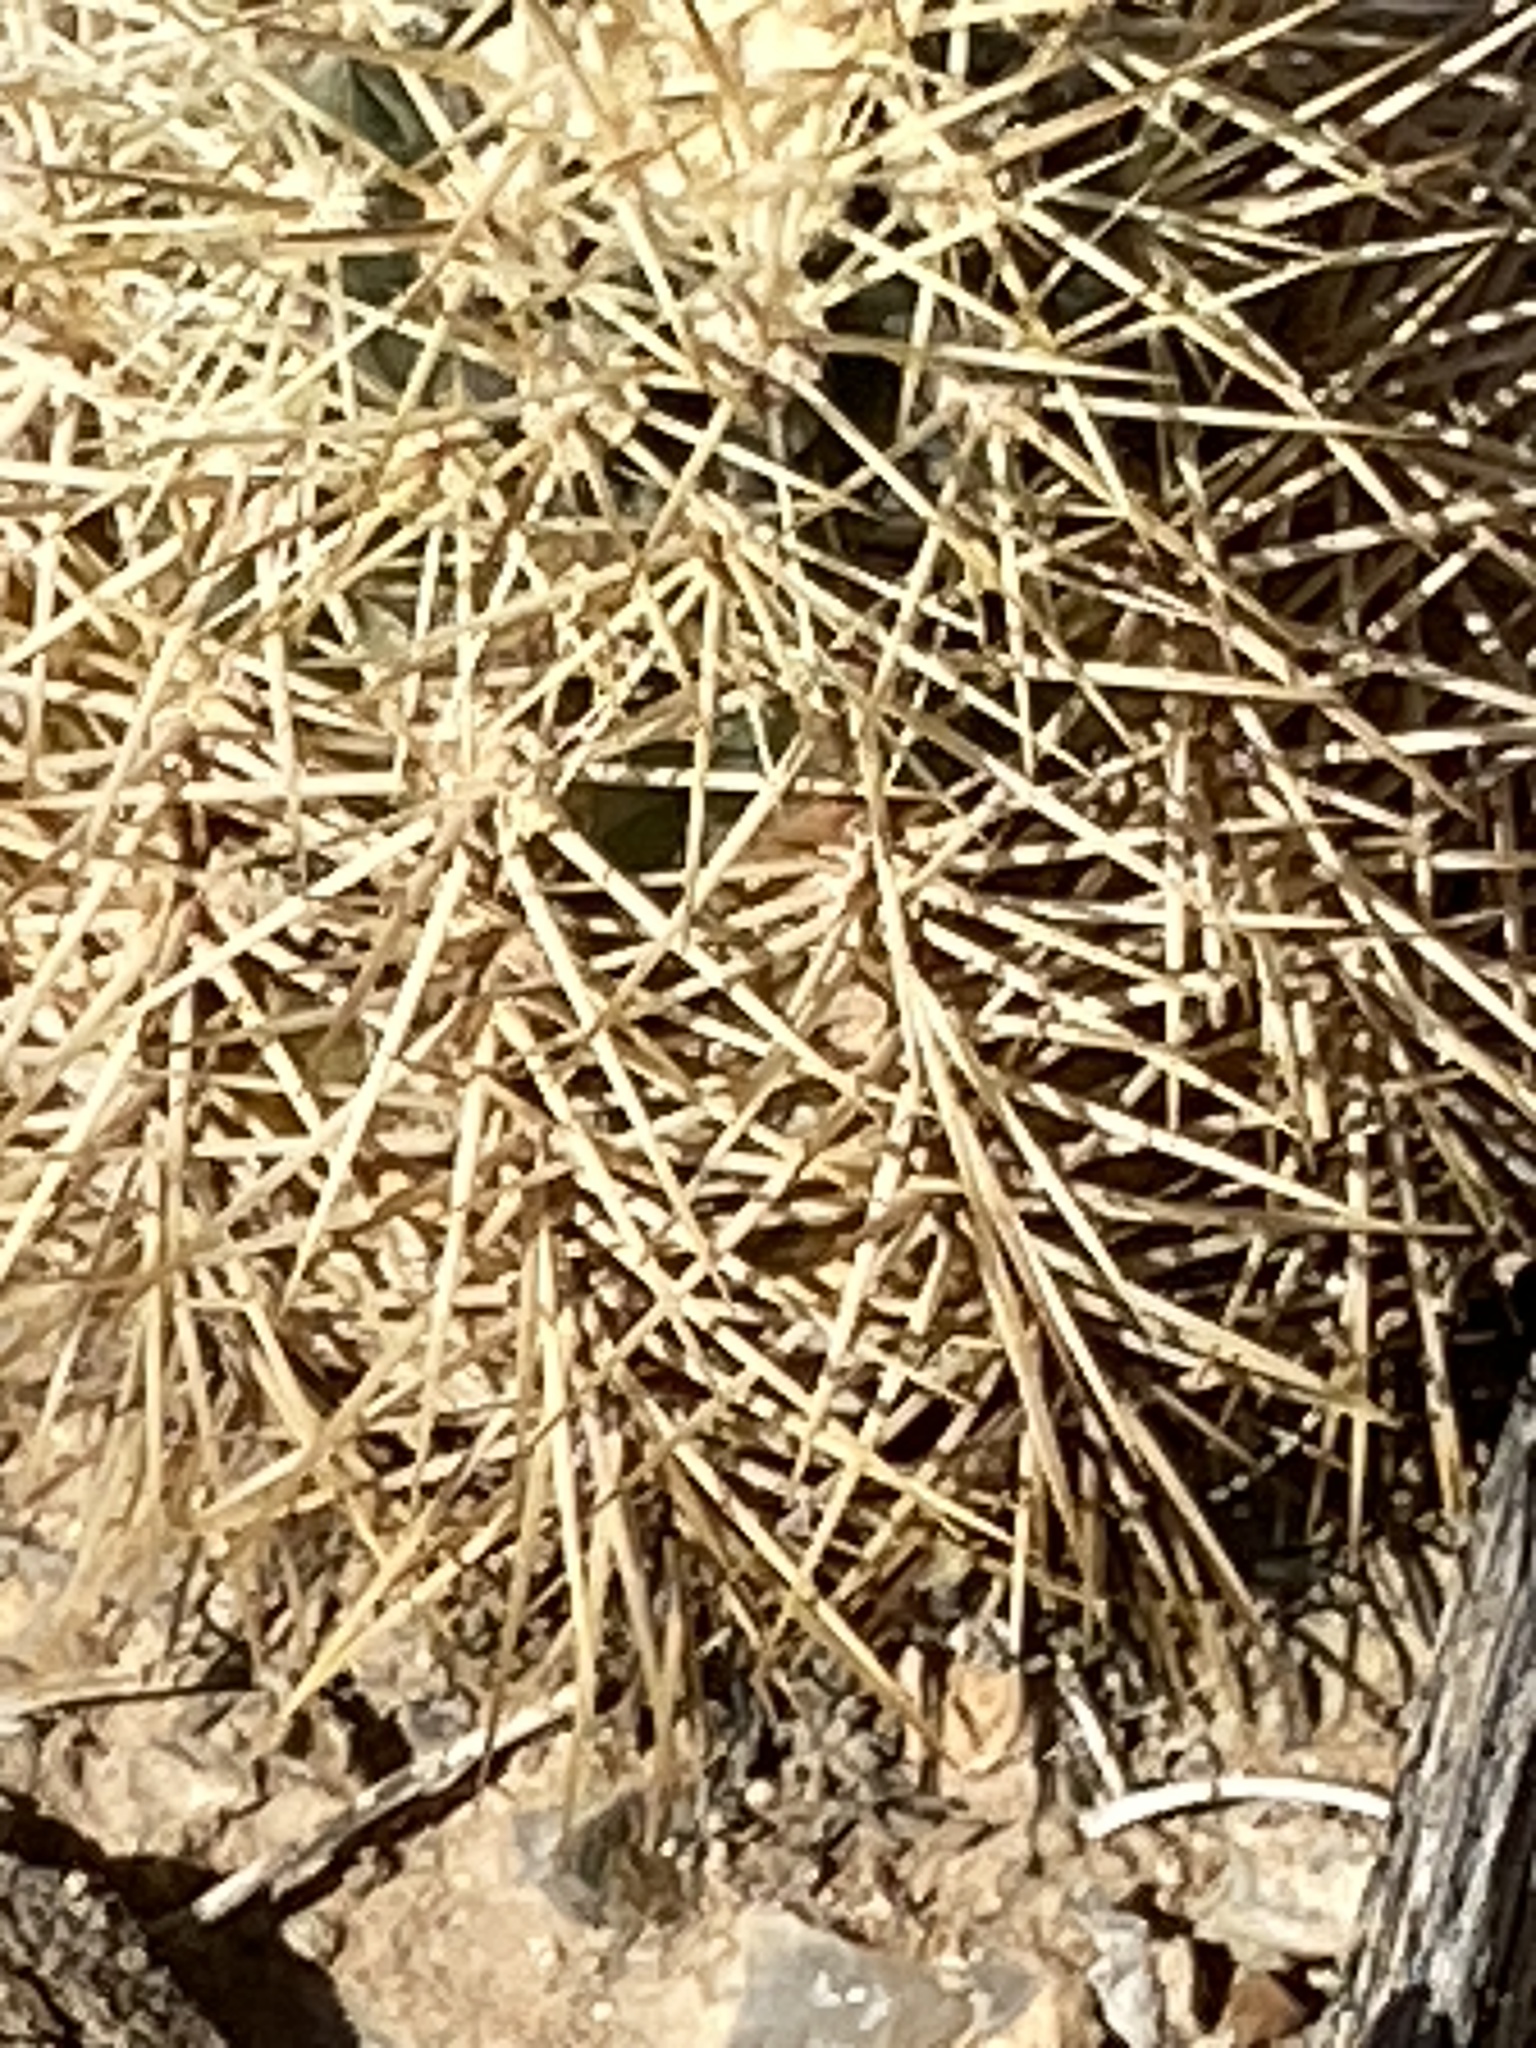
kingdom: Plantae
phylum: Tracheophyta
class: Magnoliopsida
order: Caryophyllales
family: Cactaceae
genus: Echinocereus
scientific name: Echinocereus coccineus
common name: Scarlet hedgehog cactus
